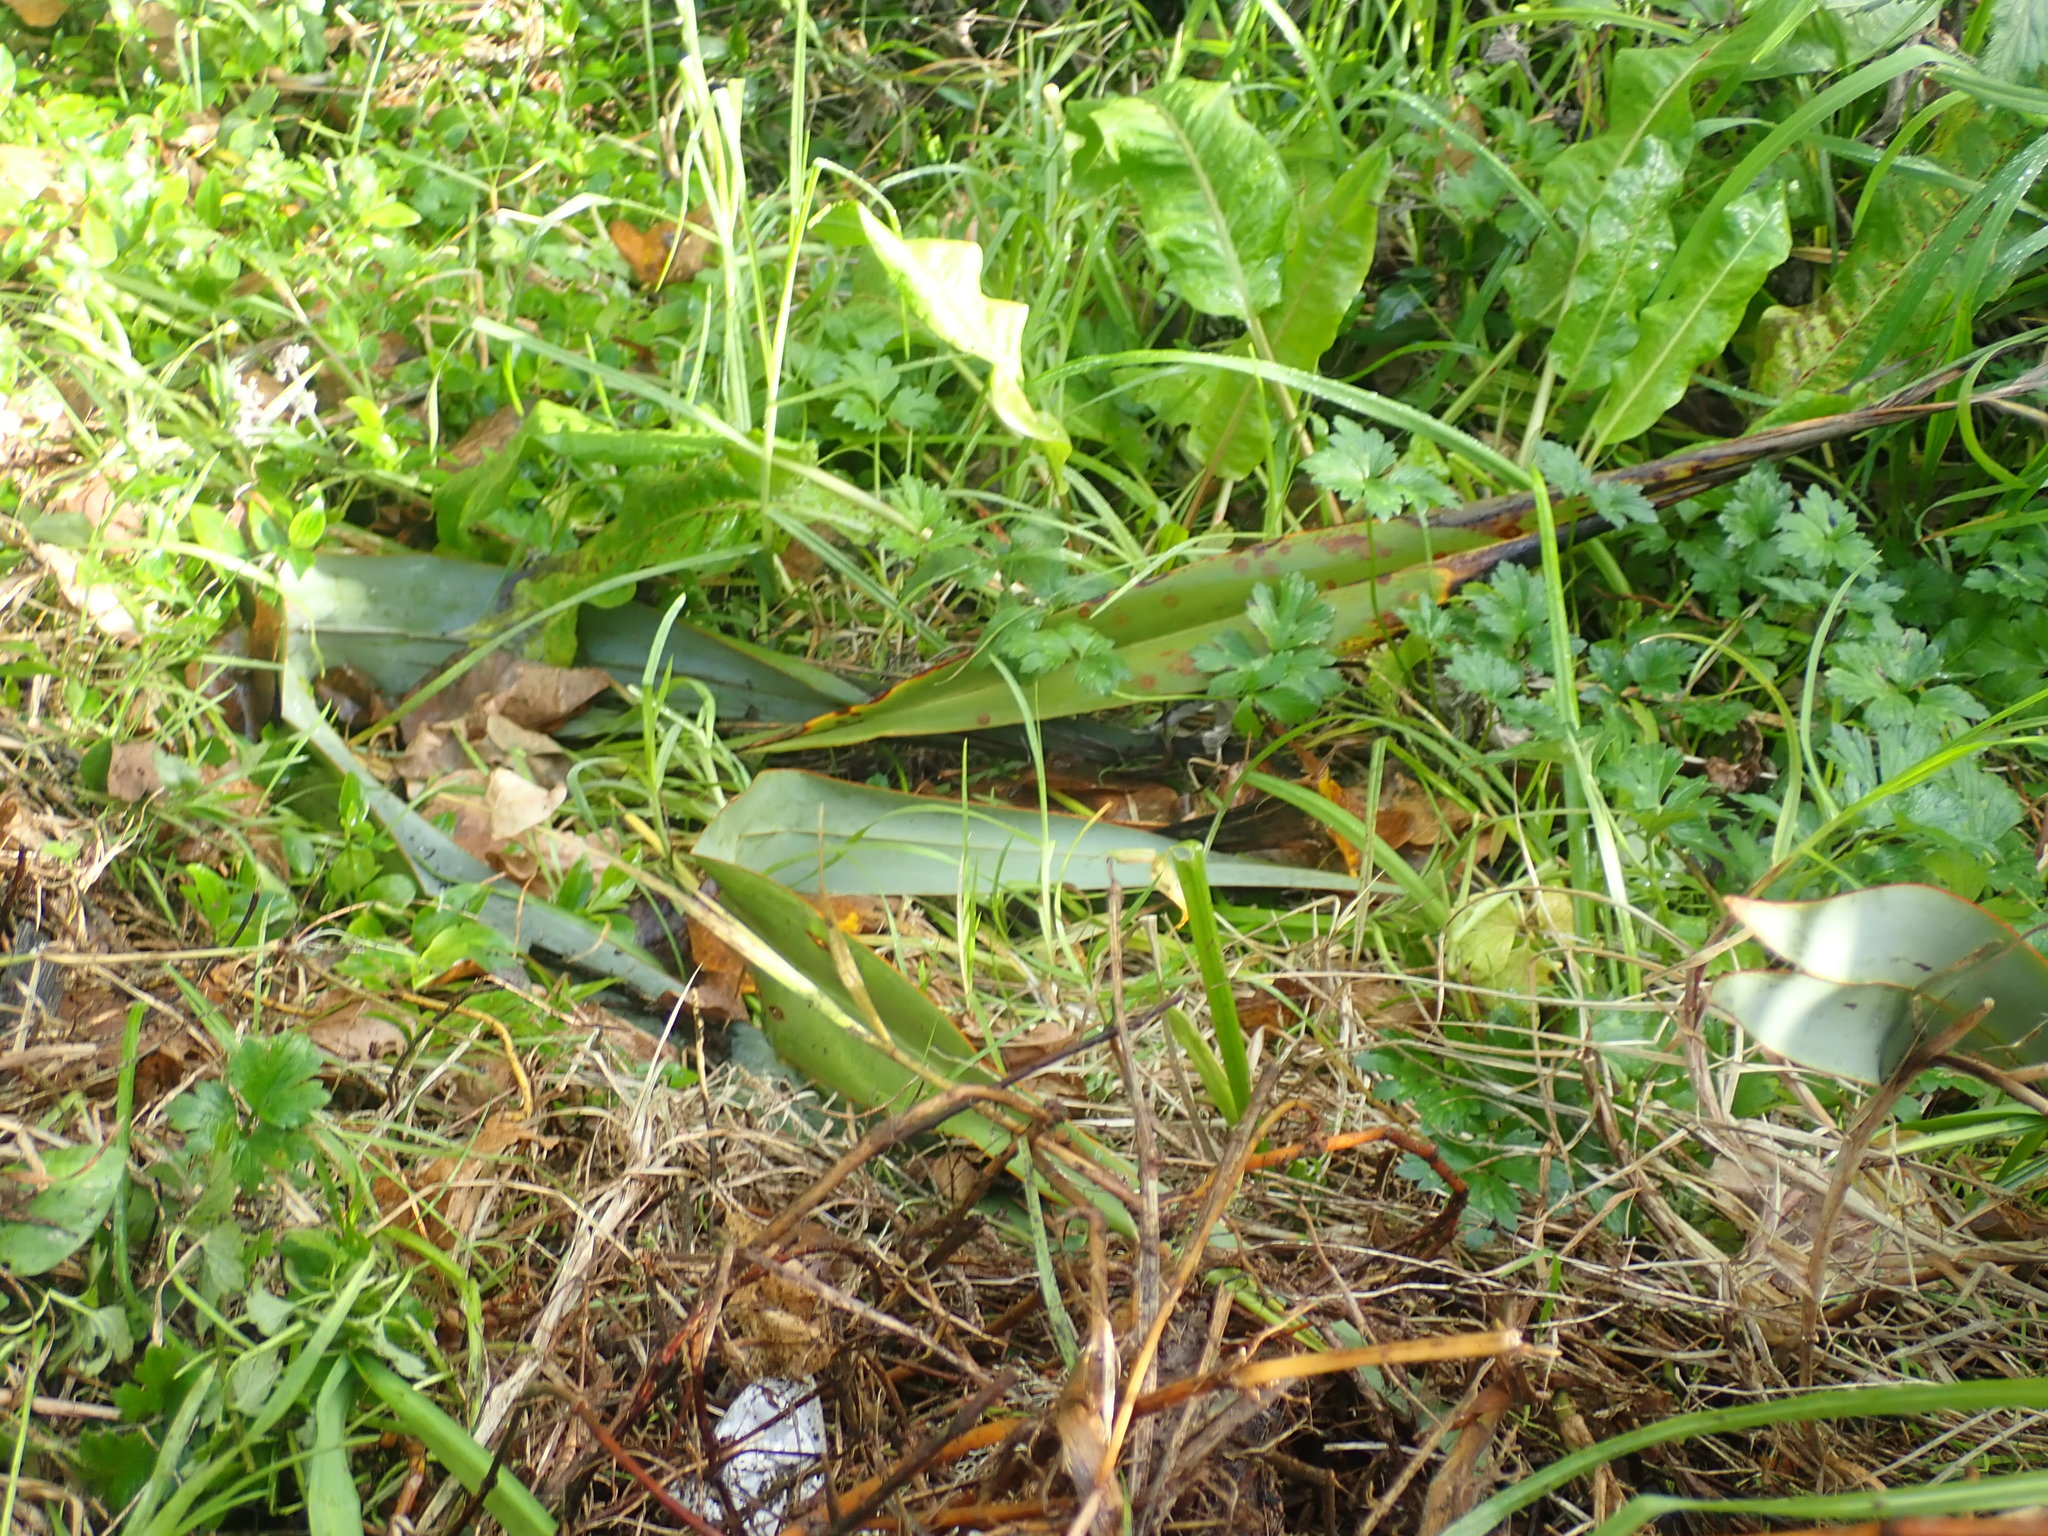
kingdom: Plantae
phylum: Tracheophyta
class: Liliopsida
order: Poales
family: Poaceae
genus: Cenchrus
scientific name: Cenchrus clandestinus
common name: Kikuyugrass
